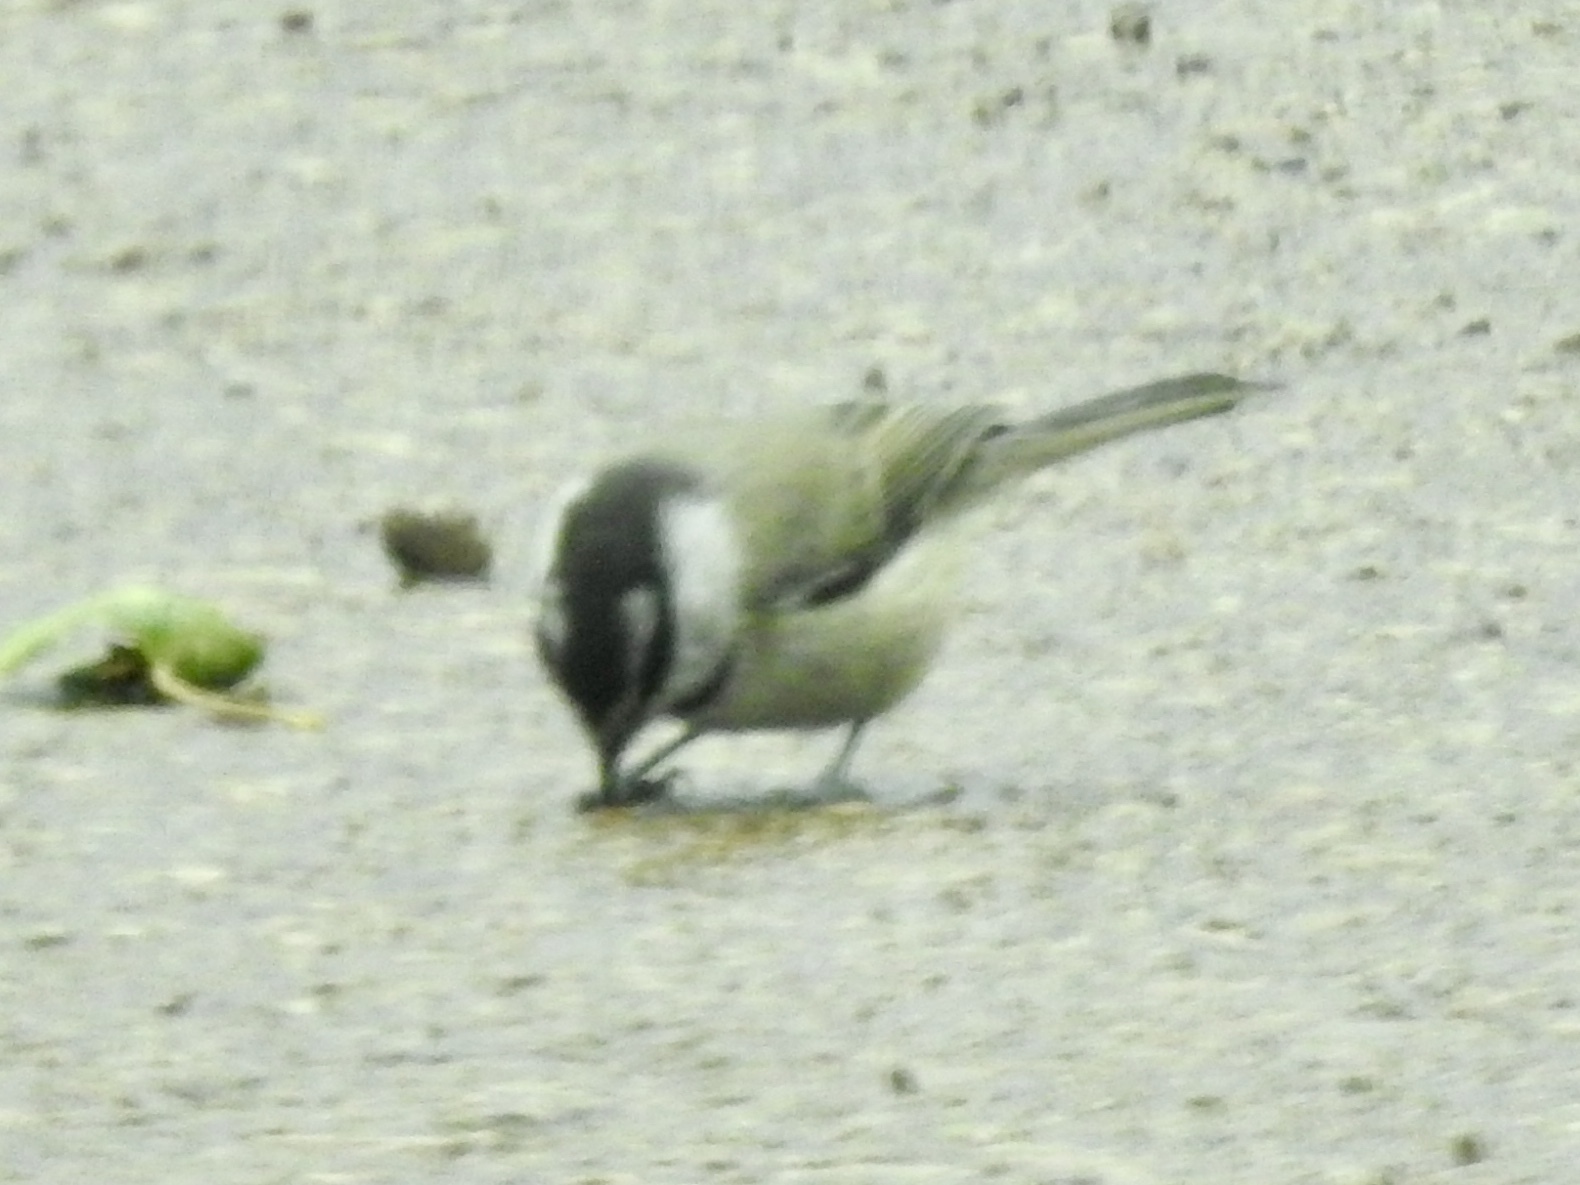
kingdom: Animalia
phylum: Chordata
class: Aves
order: Passeriformes
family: Paridae
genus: Poecile
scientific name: Poecile gambeli
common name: Mountain chickadee
